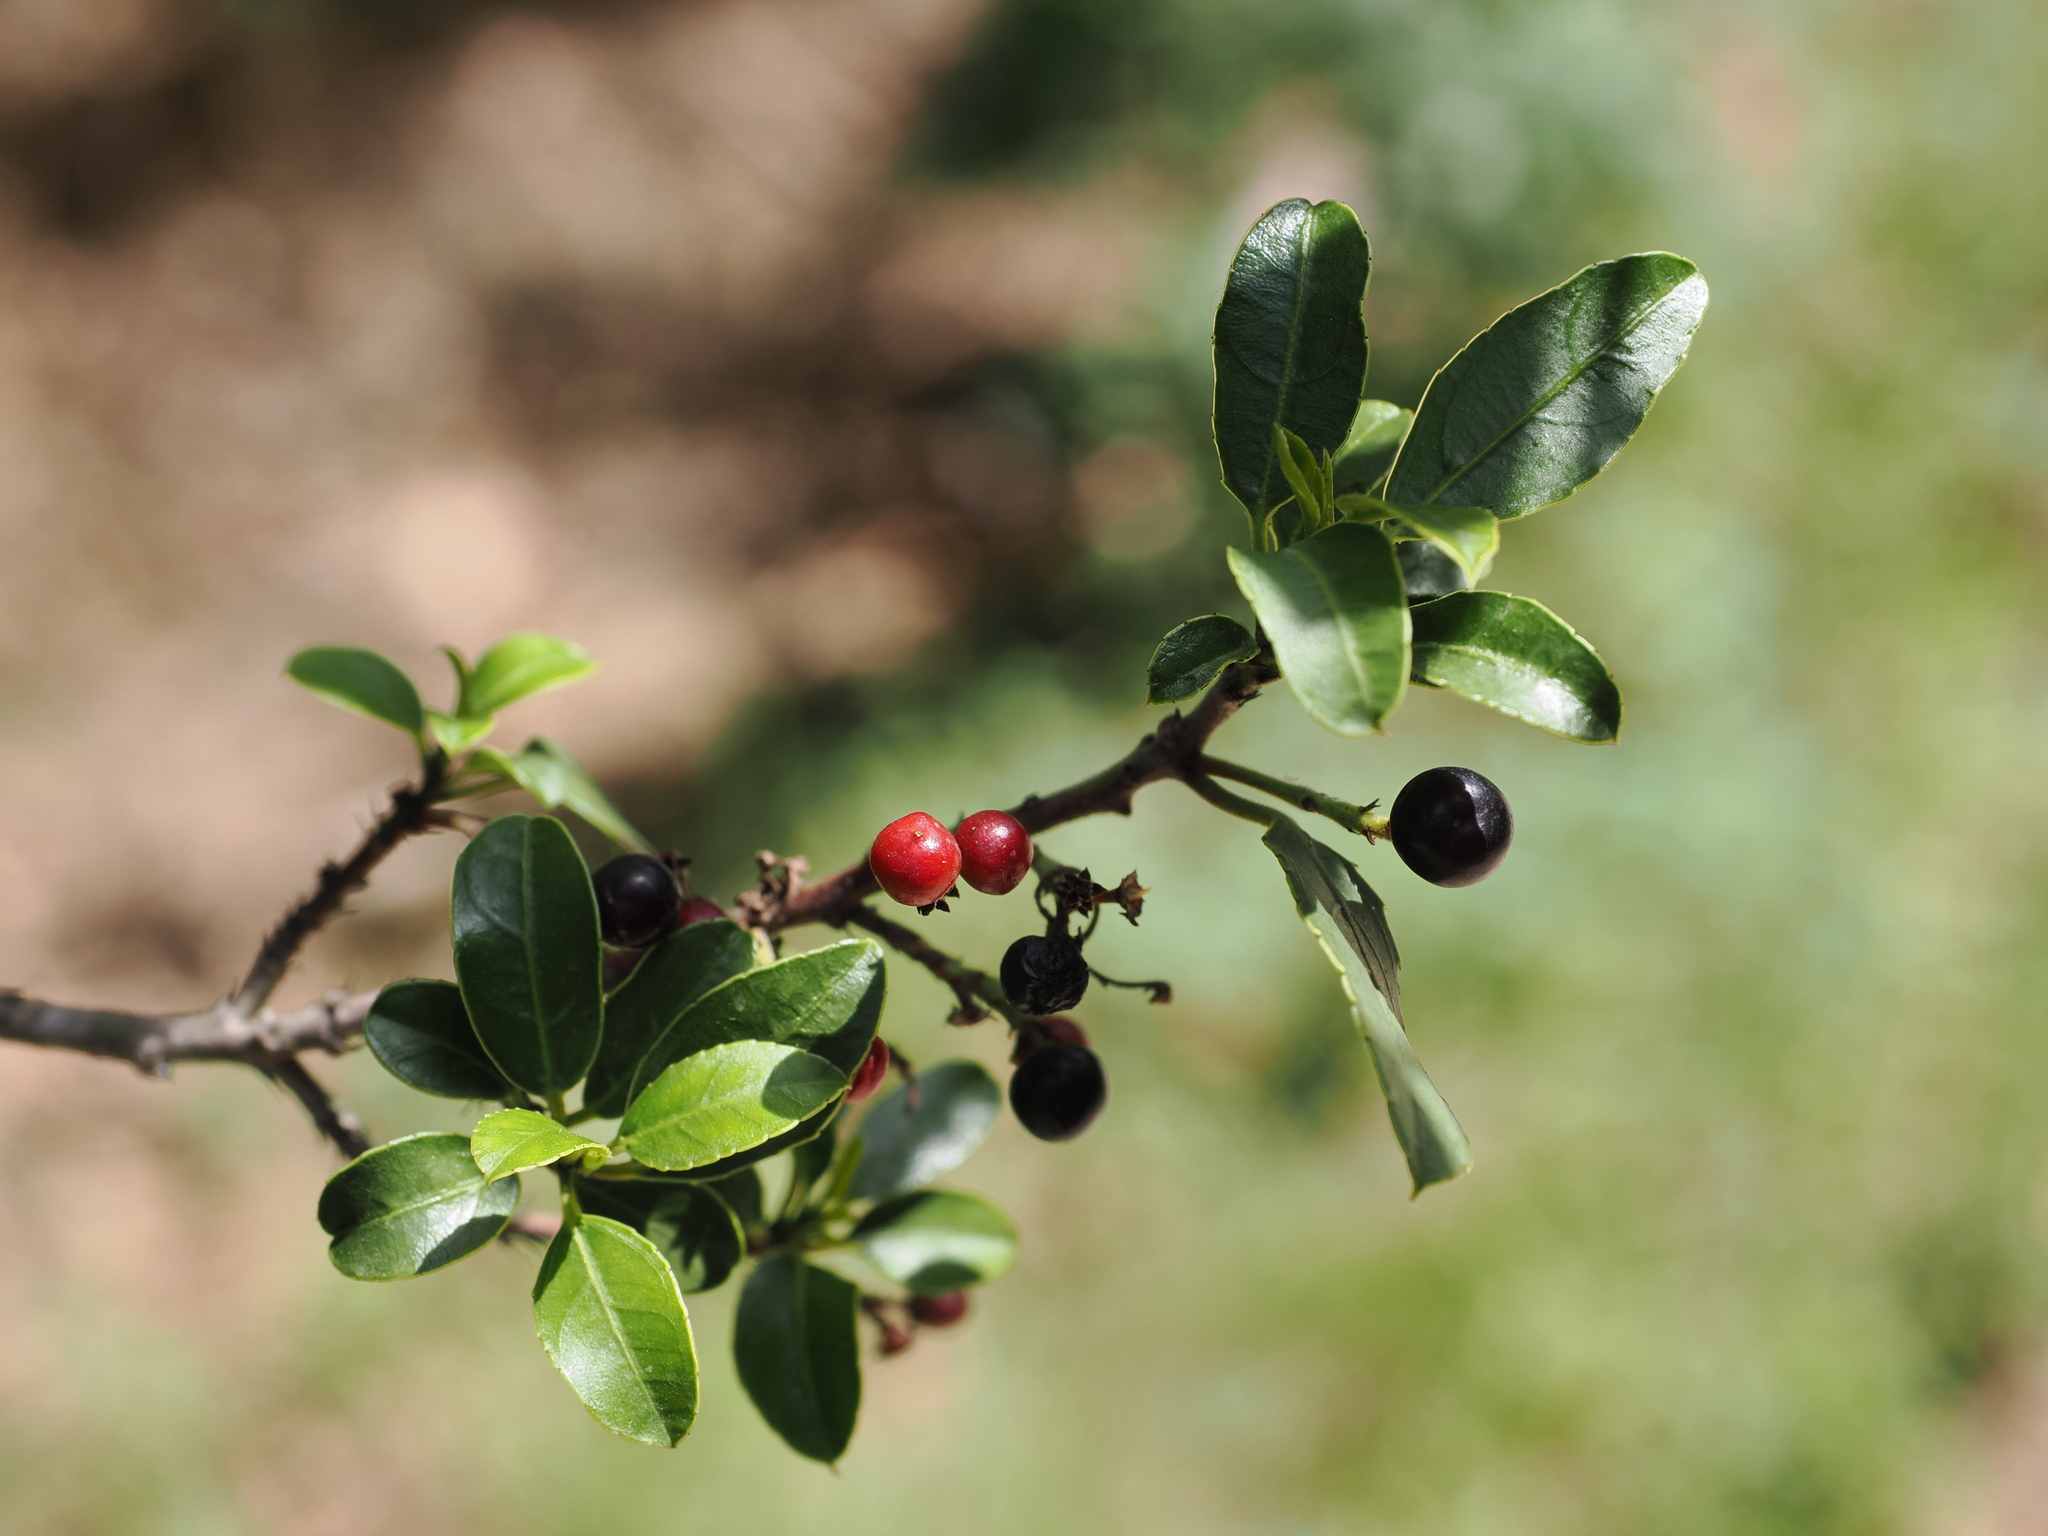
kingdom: Plantae
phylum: Tracheophyta
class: Magnoliopsida
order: Rosales
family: Rhamnaceae
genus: Rhamnus
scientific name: Rhamnus alaternus
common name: Mediterranean buckthorn
